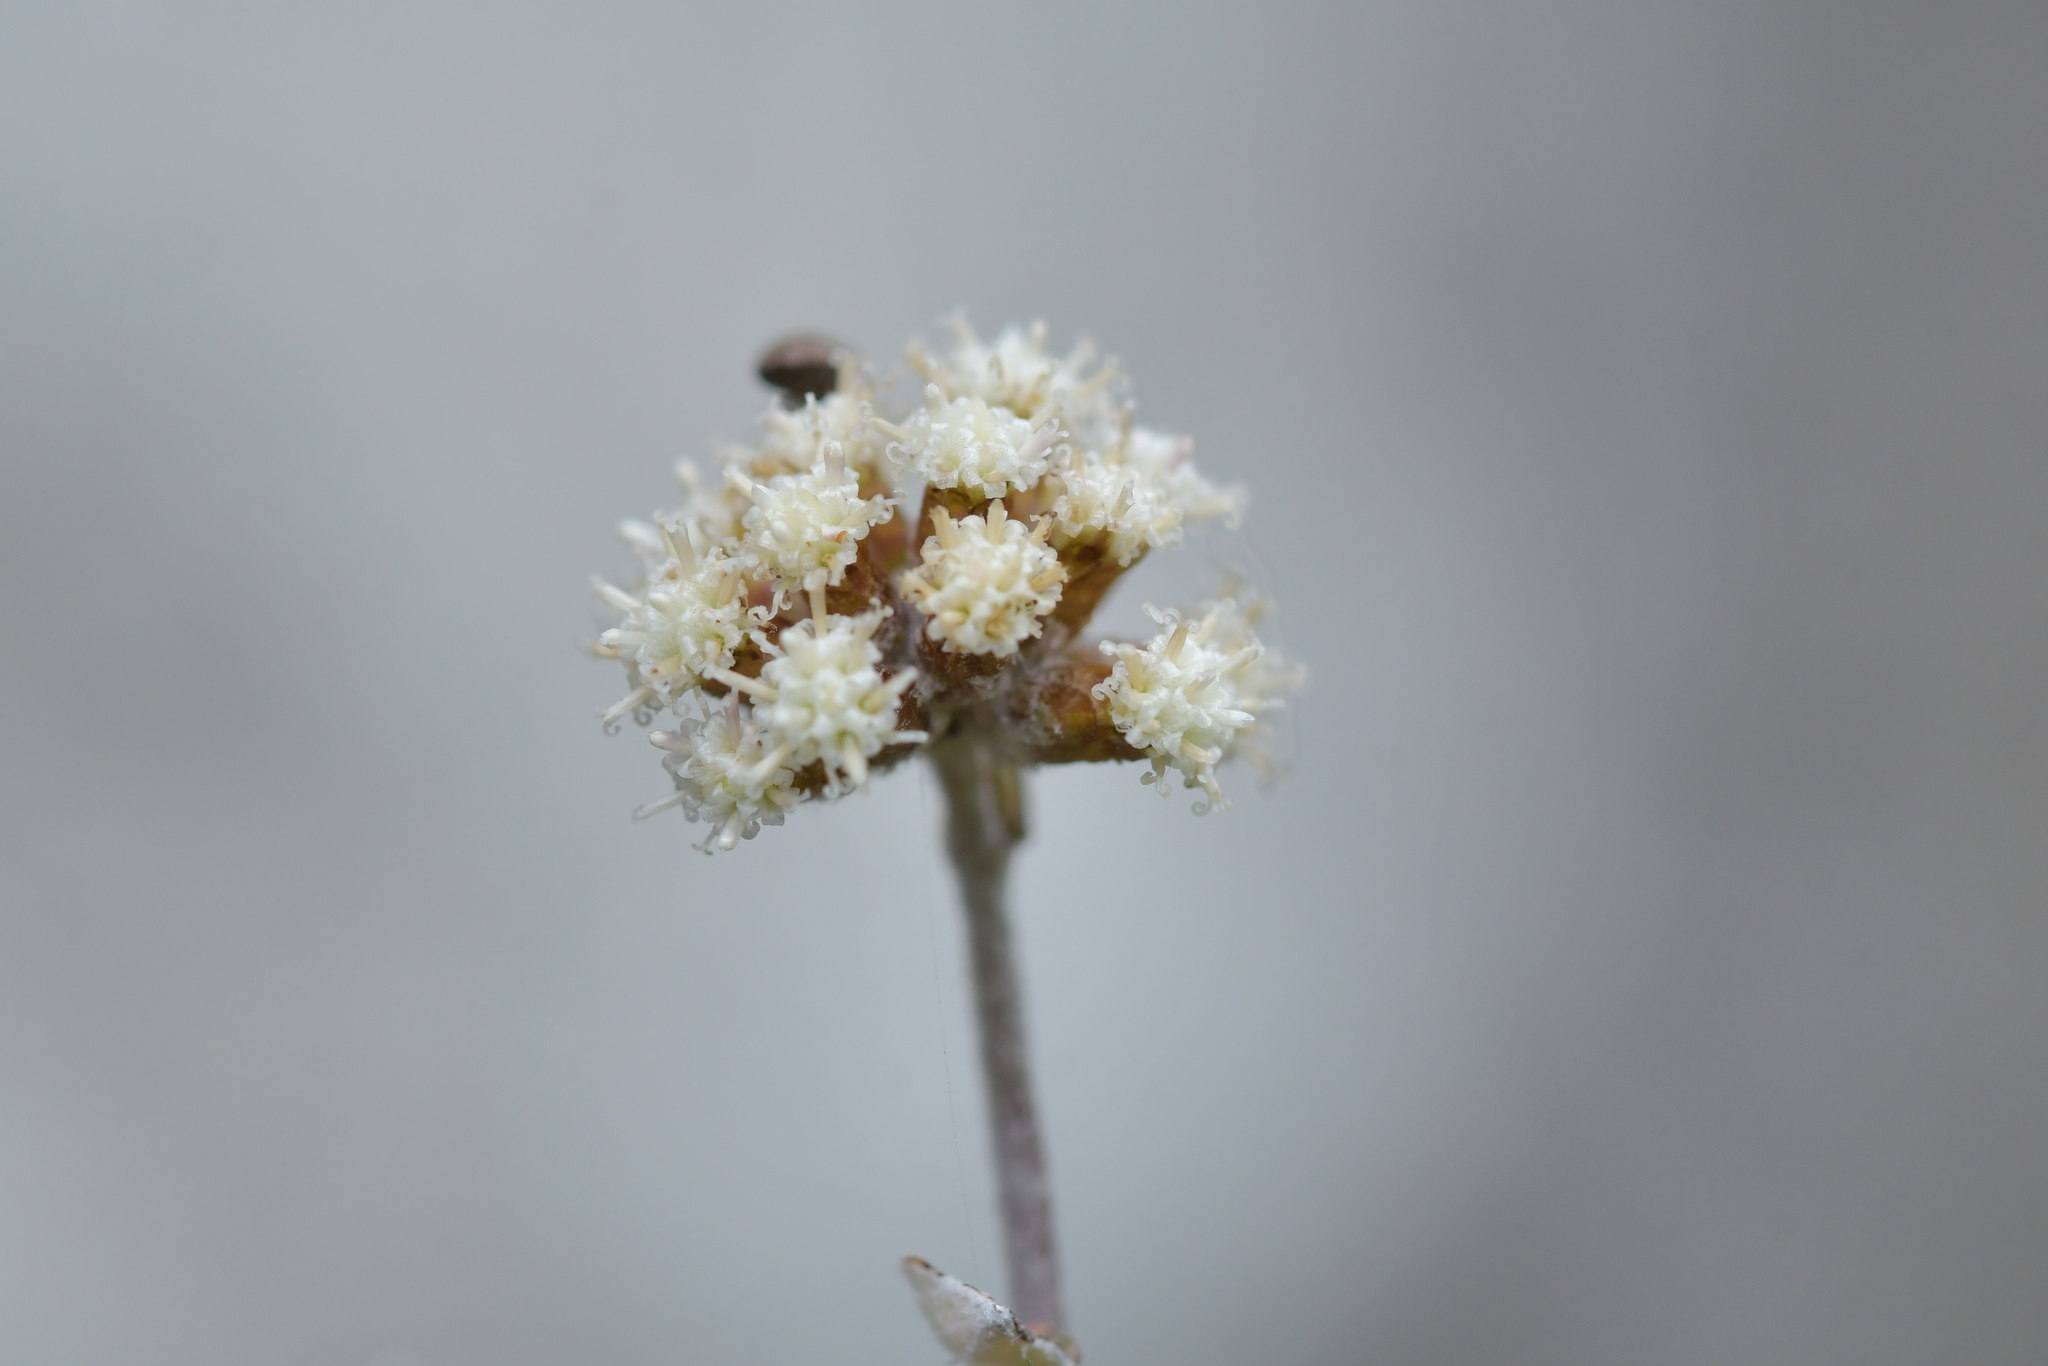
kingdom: Plantae
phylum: Tracheophyta
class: Magnoliopsida
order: Asterales
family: Asteraceae
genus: Ozothamnus
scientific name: Ozothamnus glomeratus
